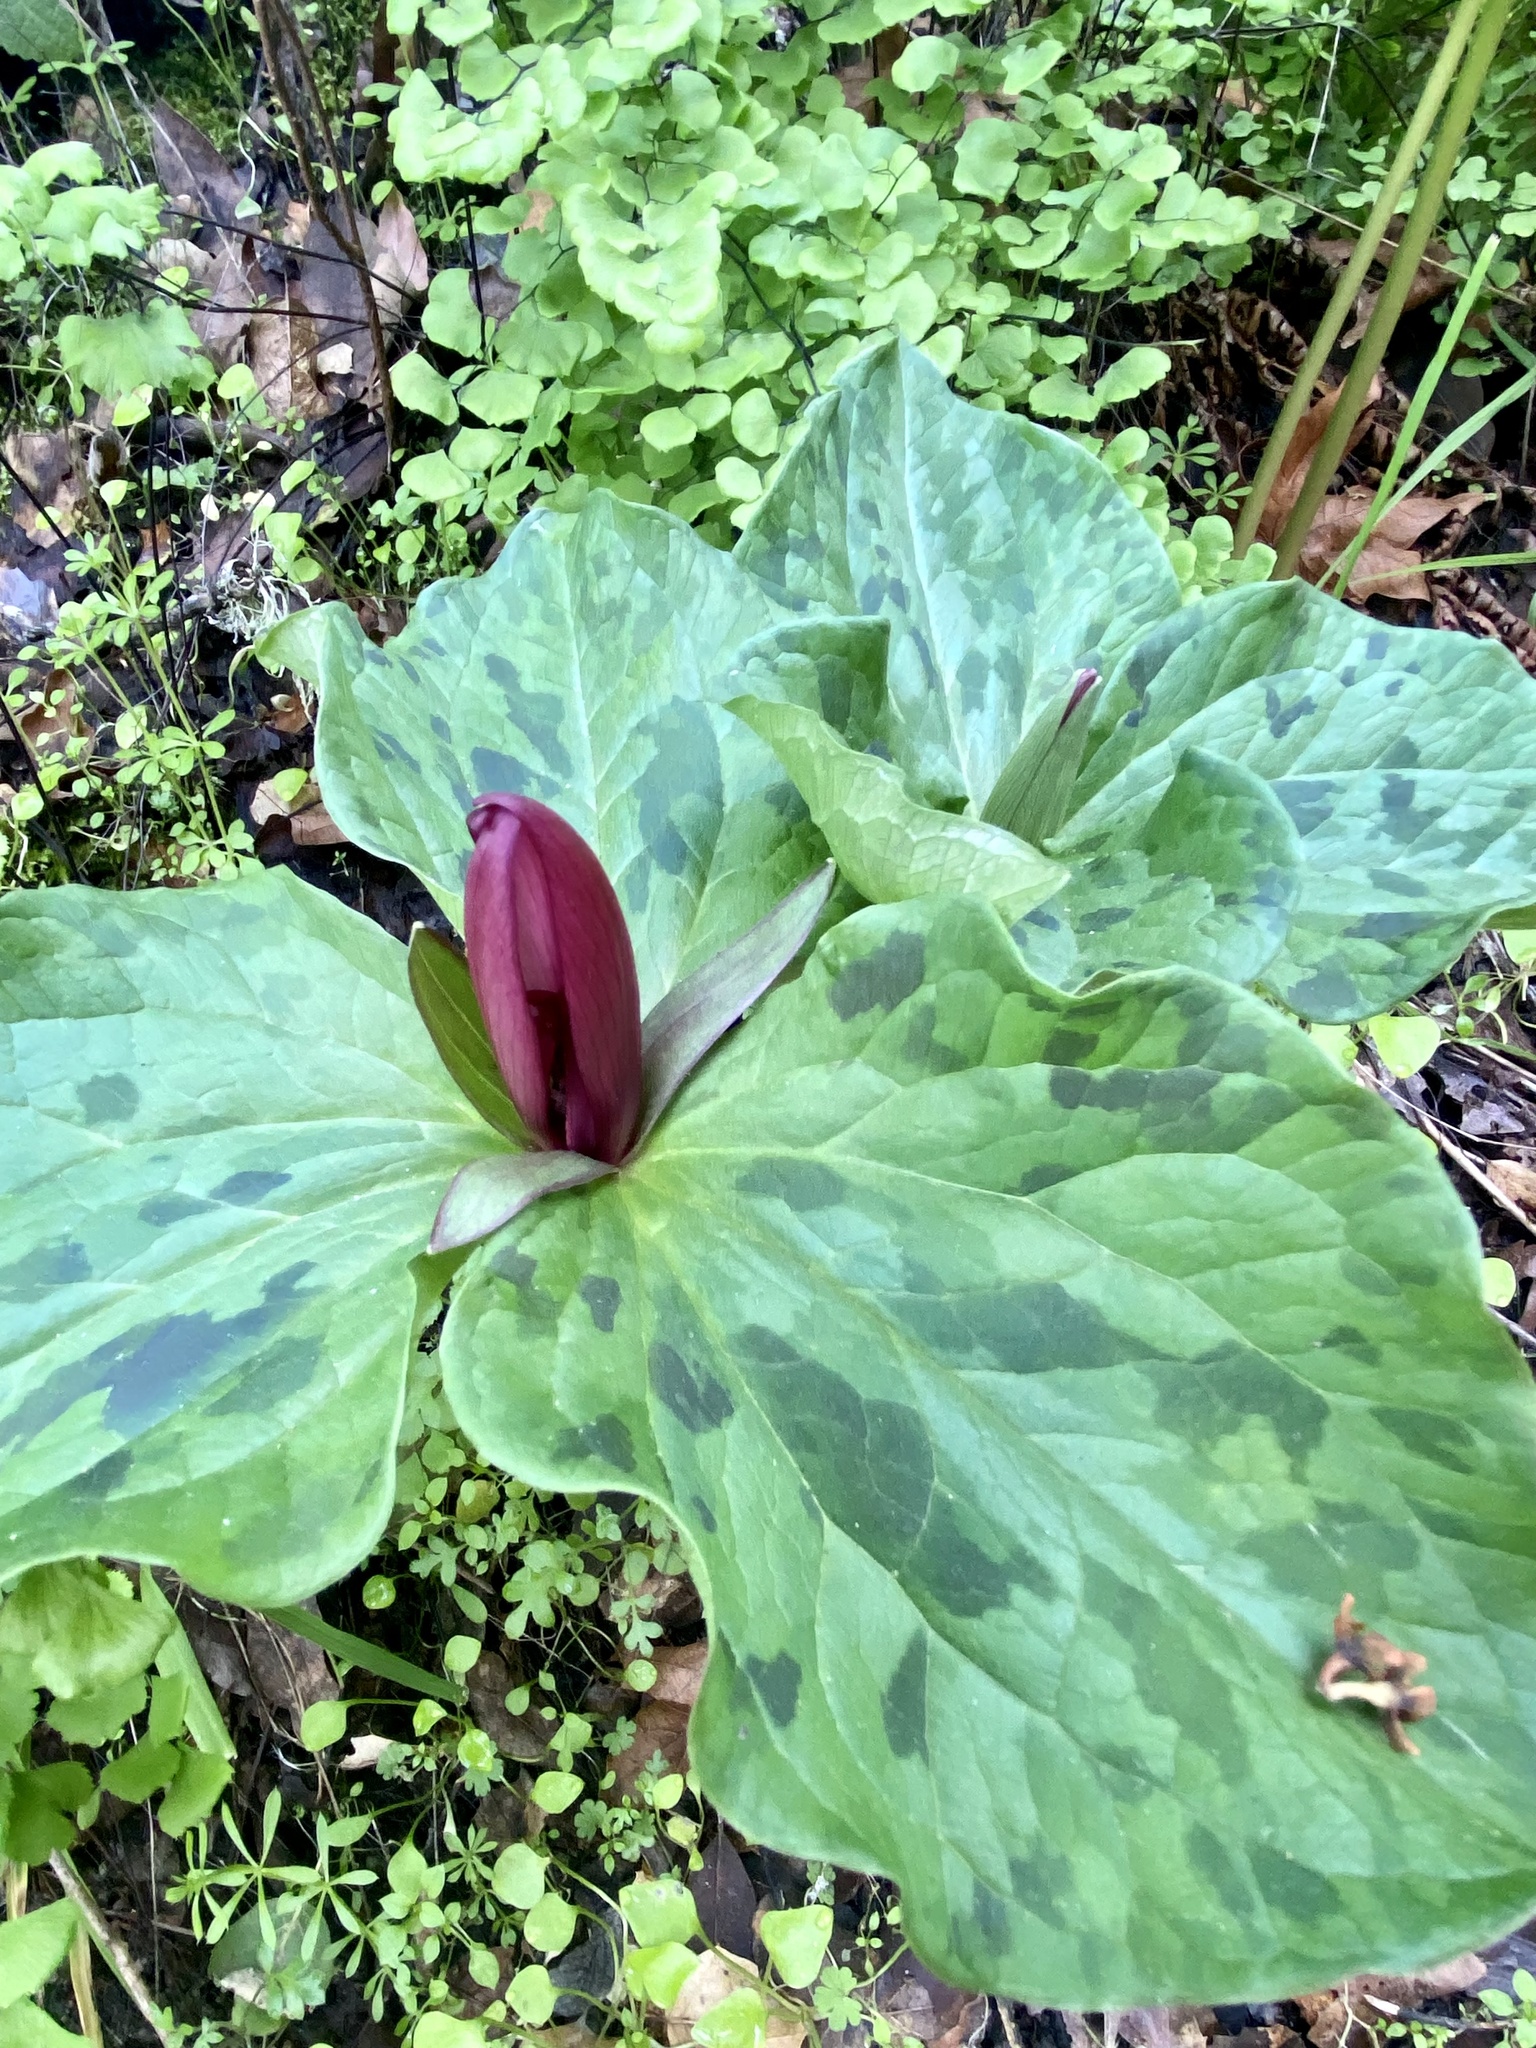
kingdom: Plantae
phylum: Tracheophyta
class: Liliopsida
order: Liliales
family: Melanthiaceae
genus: Trillium
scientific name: Trillium chloropetalum
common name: Giant trillium
